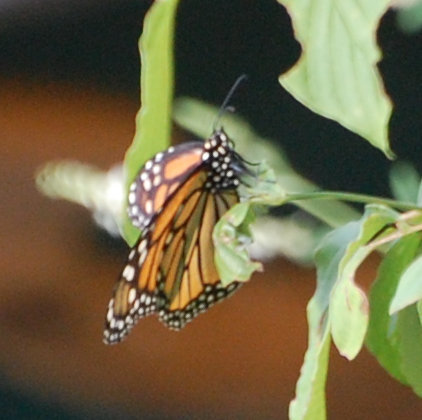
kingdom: Animalia
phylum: Arthropoda
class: Insecta
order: Lepidoptera
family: Nymphalidae
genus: Danaus
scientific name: Danaus plexippus
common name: Monarch
